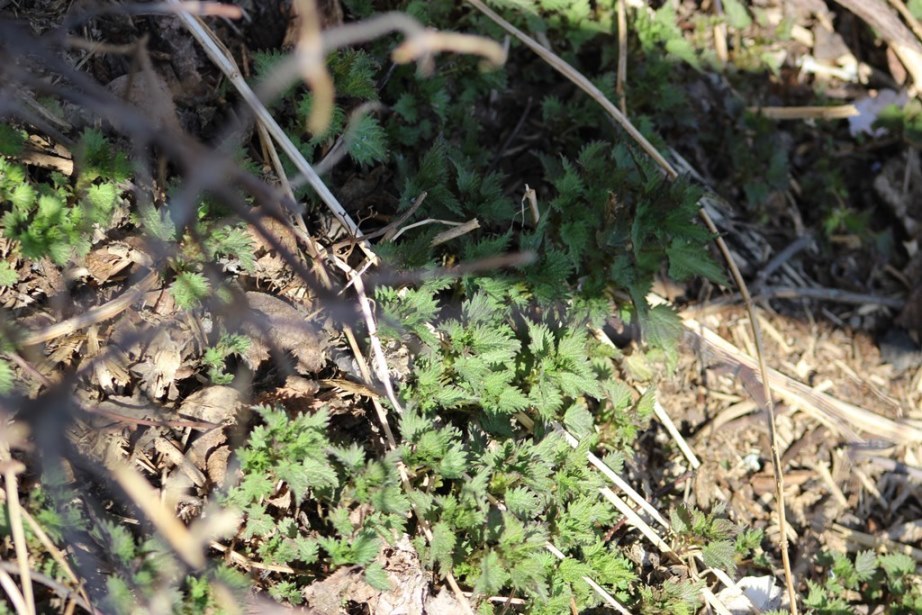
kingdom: Plantae
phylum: Tracheophyta
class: Magnoliopsida
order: Rosales
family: Urticaceae
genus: Urtica
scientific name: Urtica dioica
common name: Common nettle
